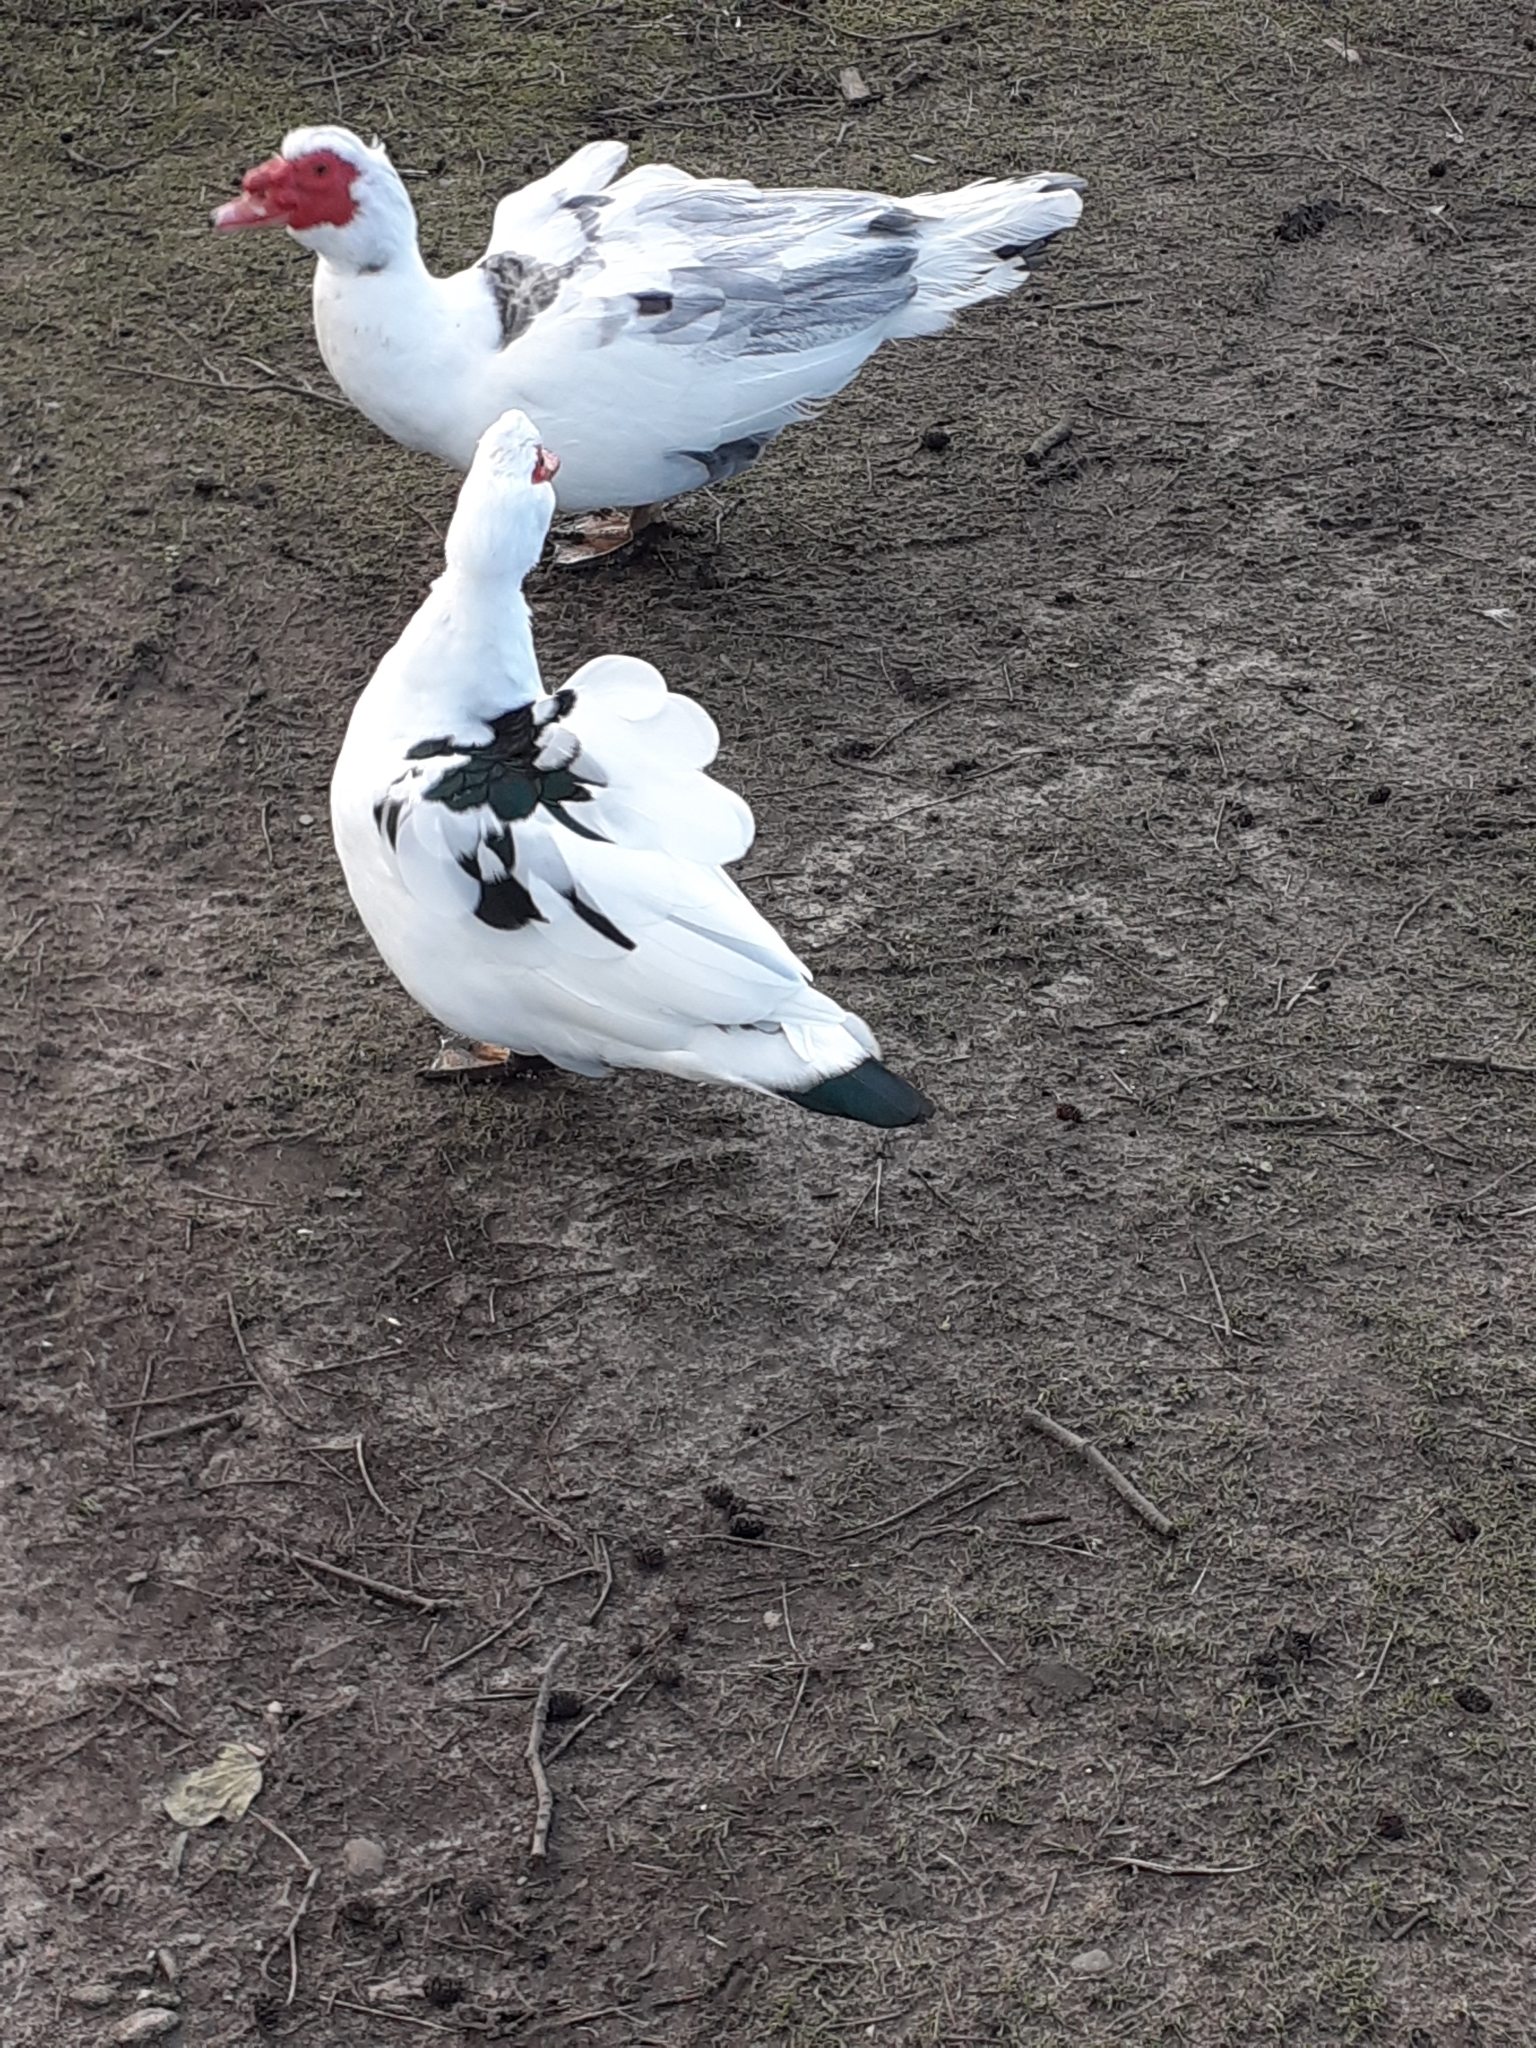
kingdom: Animalia
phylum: Chordata
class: Aves
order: Anseriformes
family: Anatidae
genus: Cairina
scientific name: Cairina moschata
